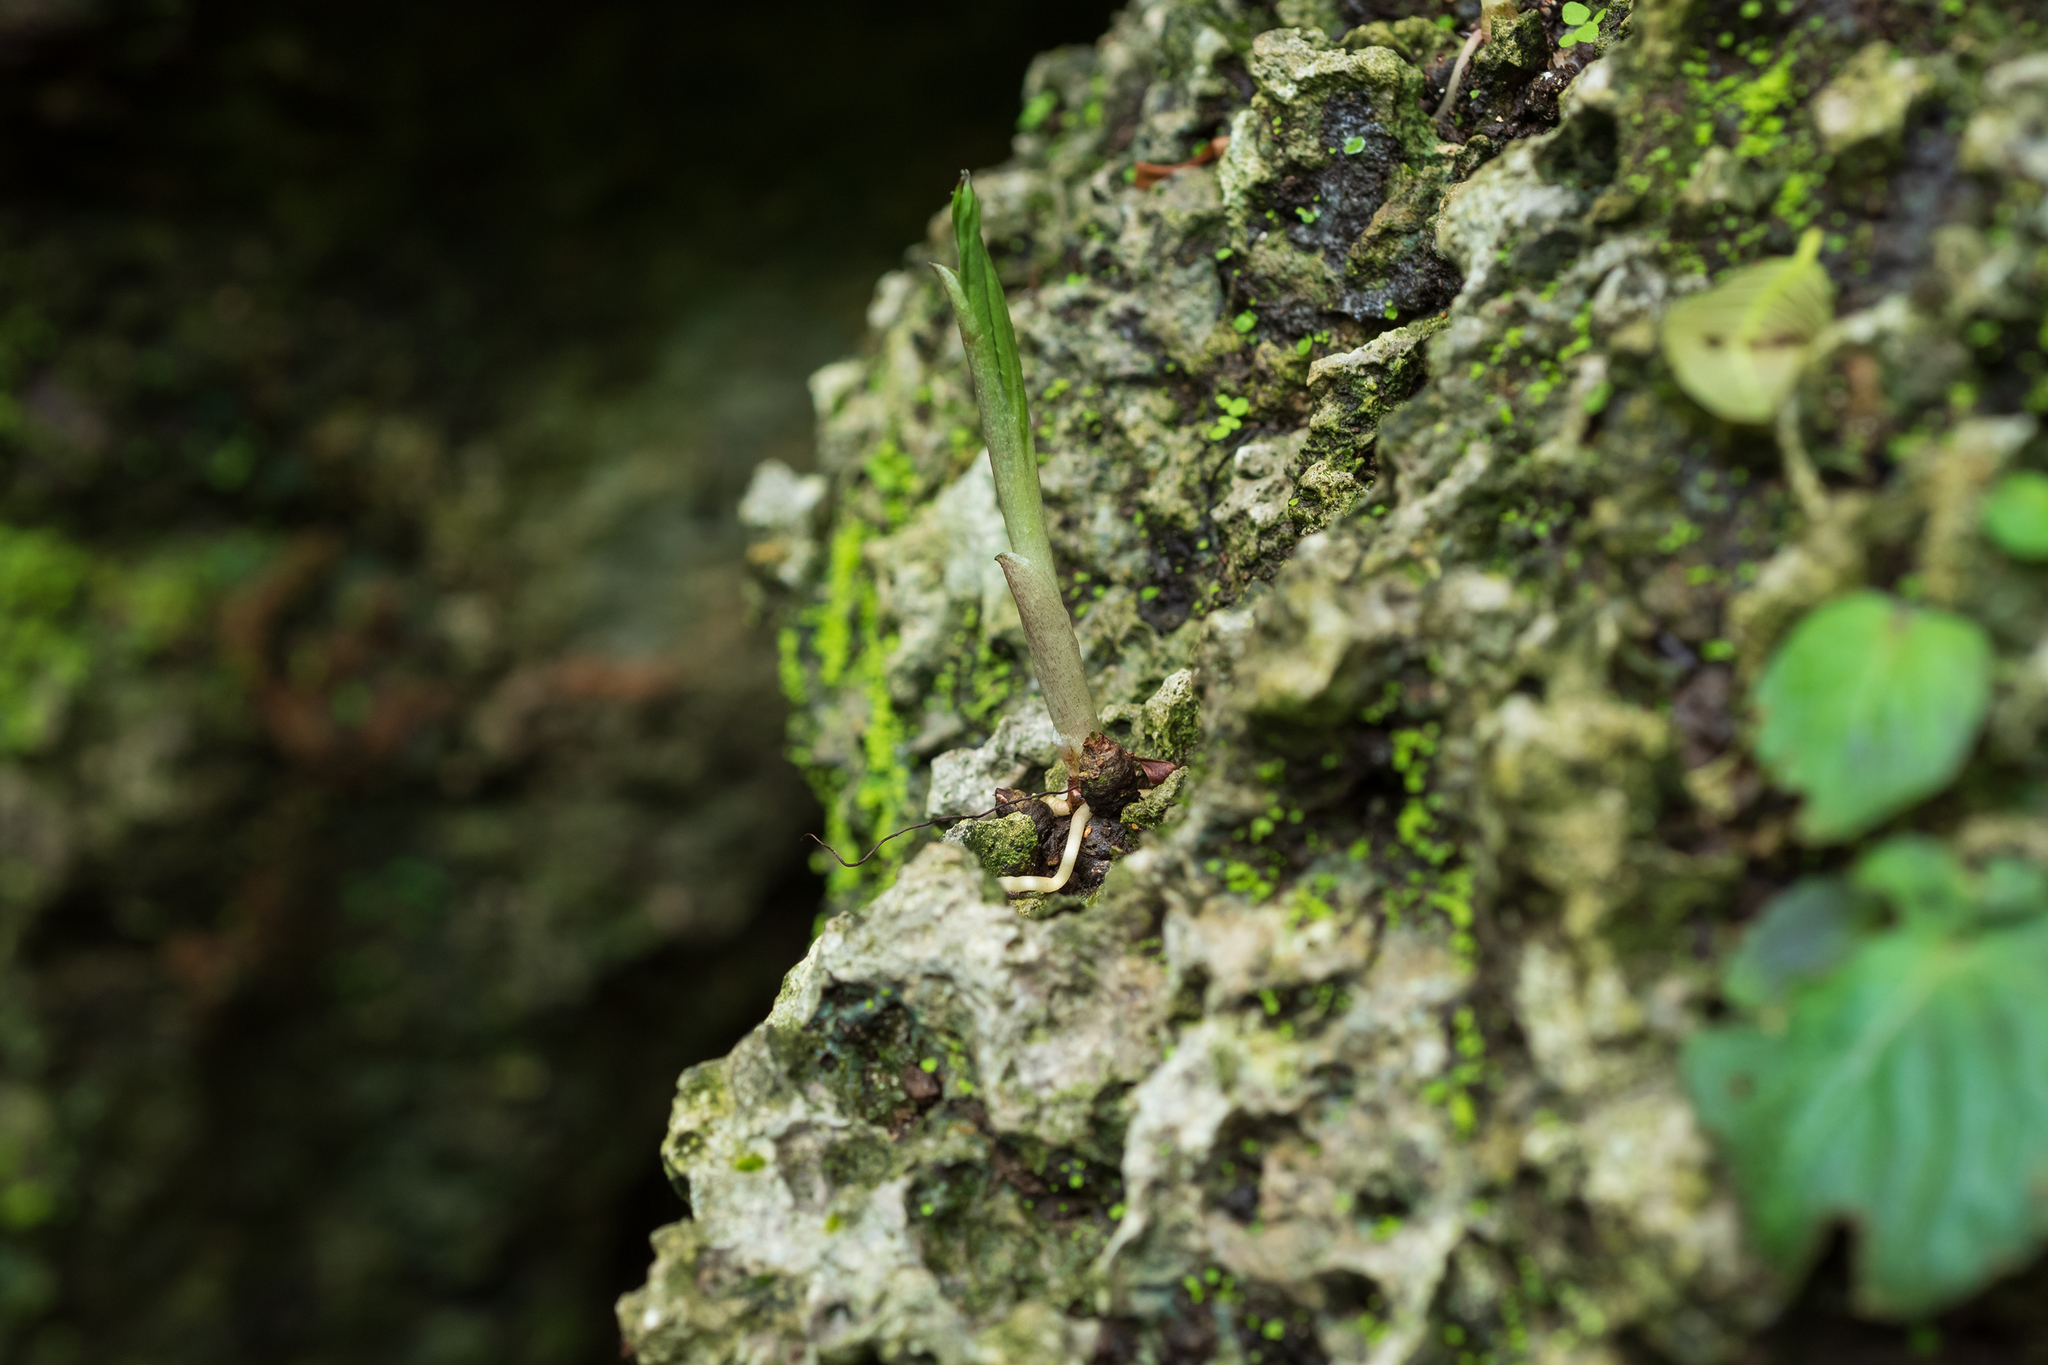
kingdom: Plantae
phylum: Tracheophyta
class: Liliopsida
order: Alismatales
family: Araceae
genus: Amorphophallus
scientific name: Amorphophallus henryi
